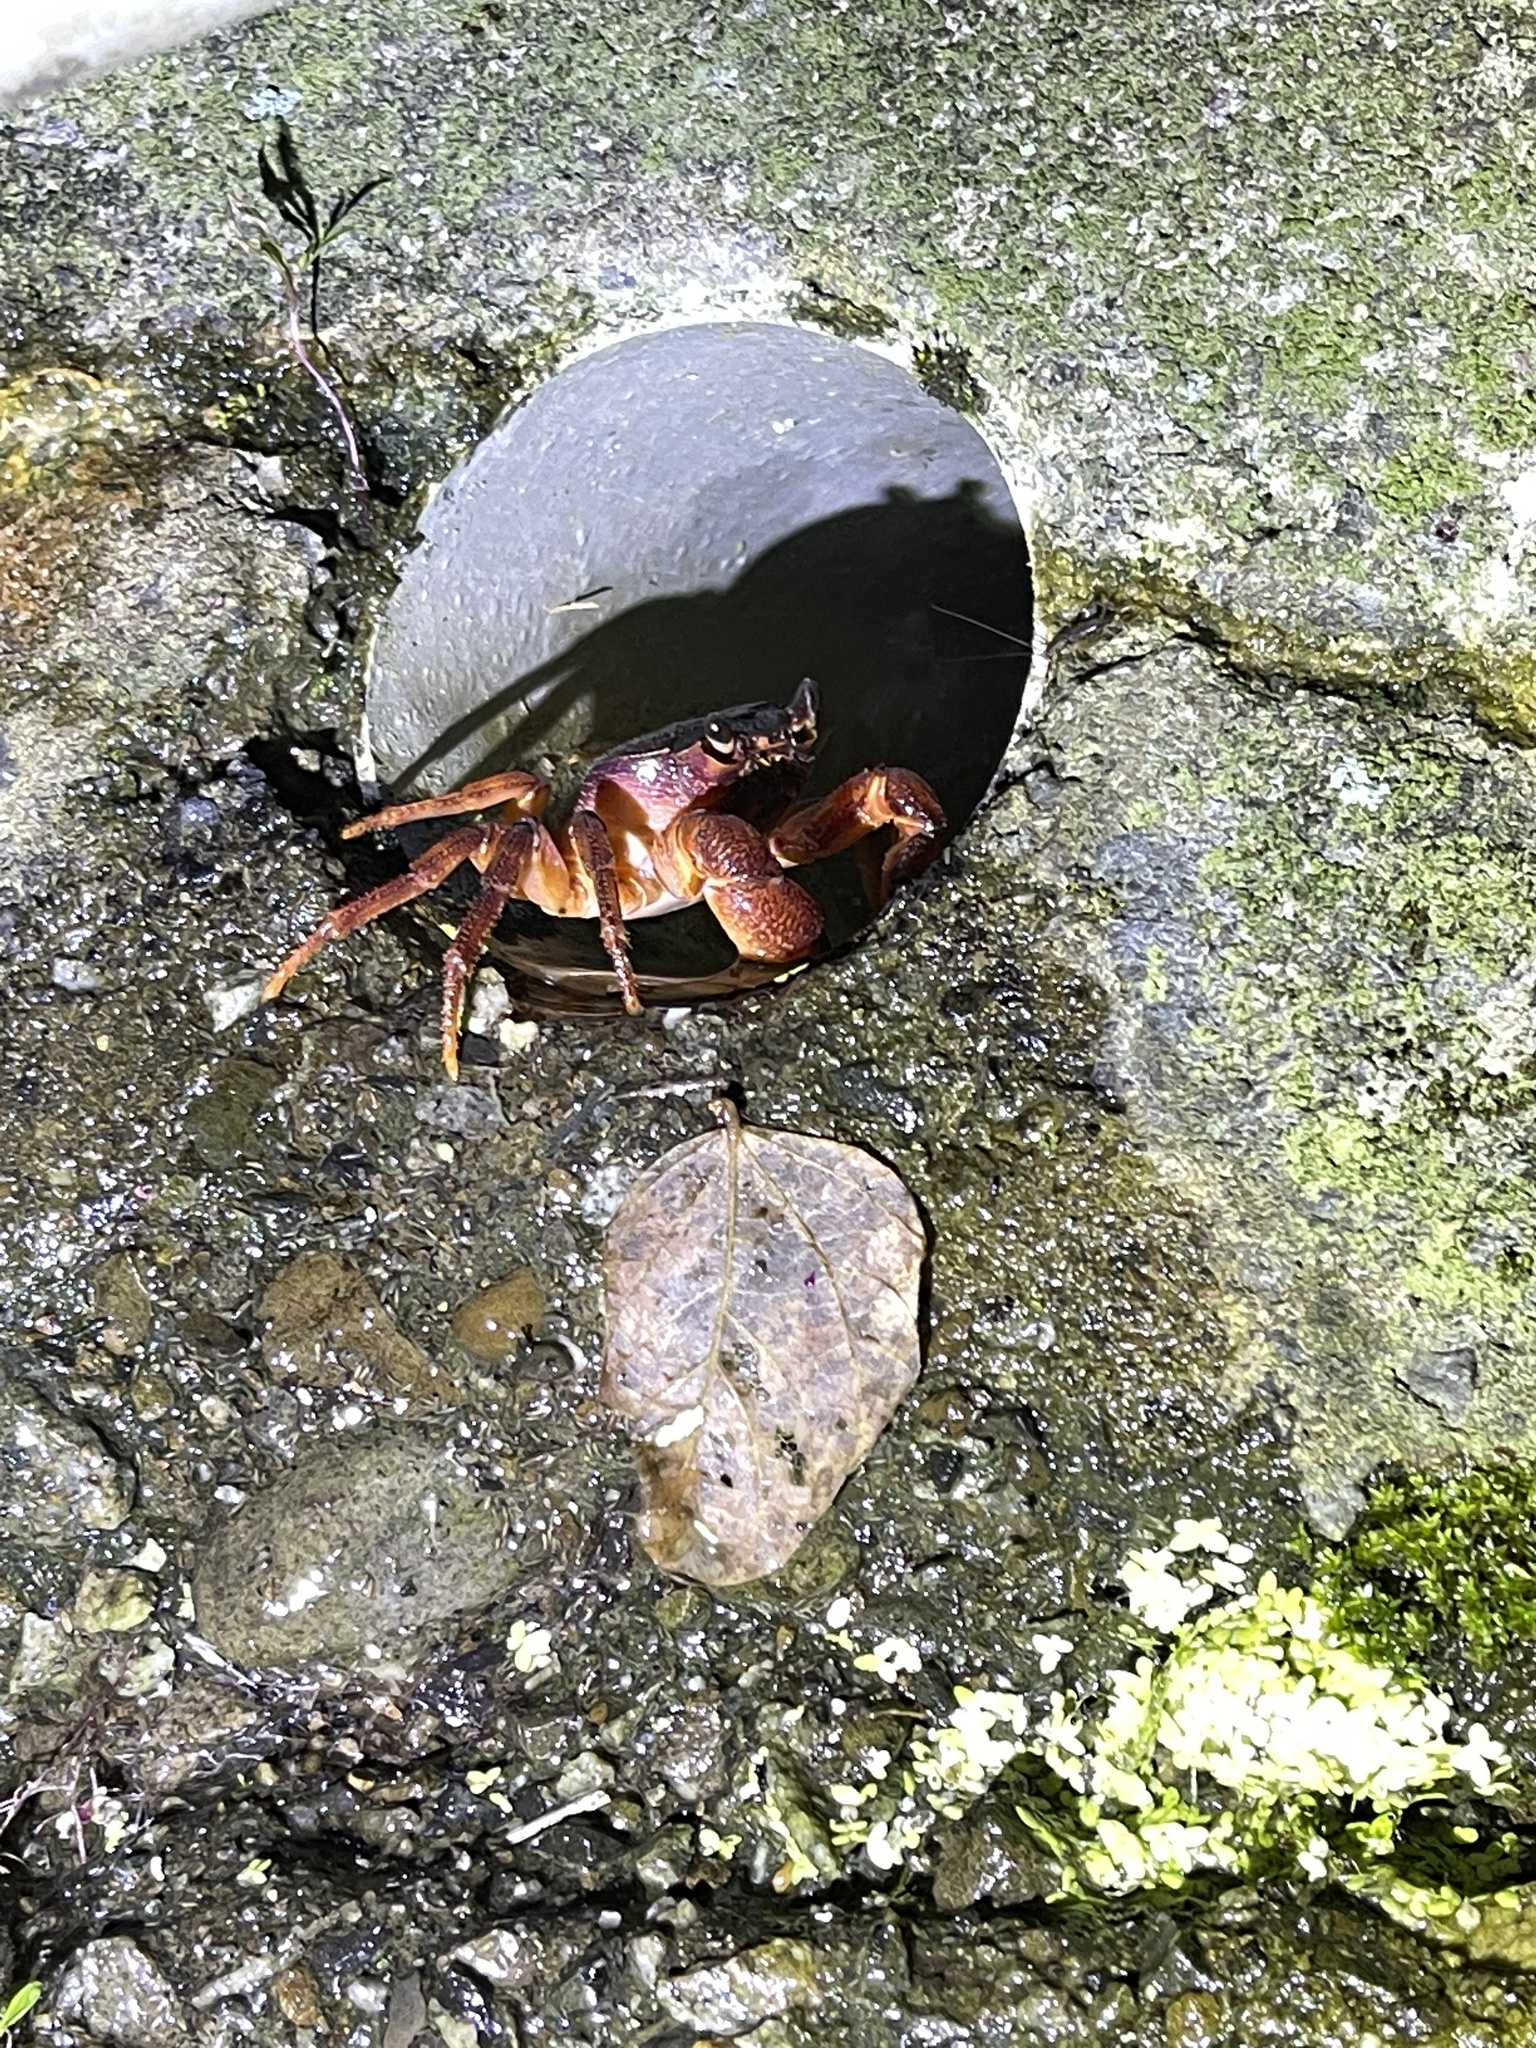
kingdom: Animalia
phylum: Arthropoda
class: Malacostraca
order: Decapoda
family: Potamidae
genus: Candidiopotamon
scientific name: Candidiopotamon rathbuni
